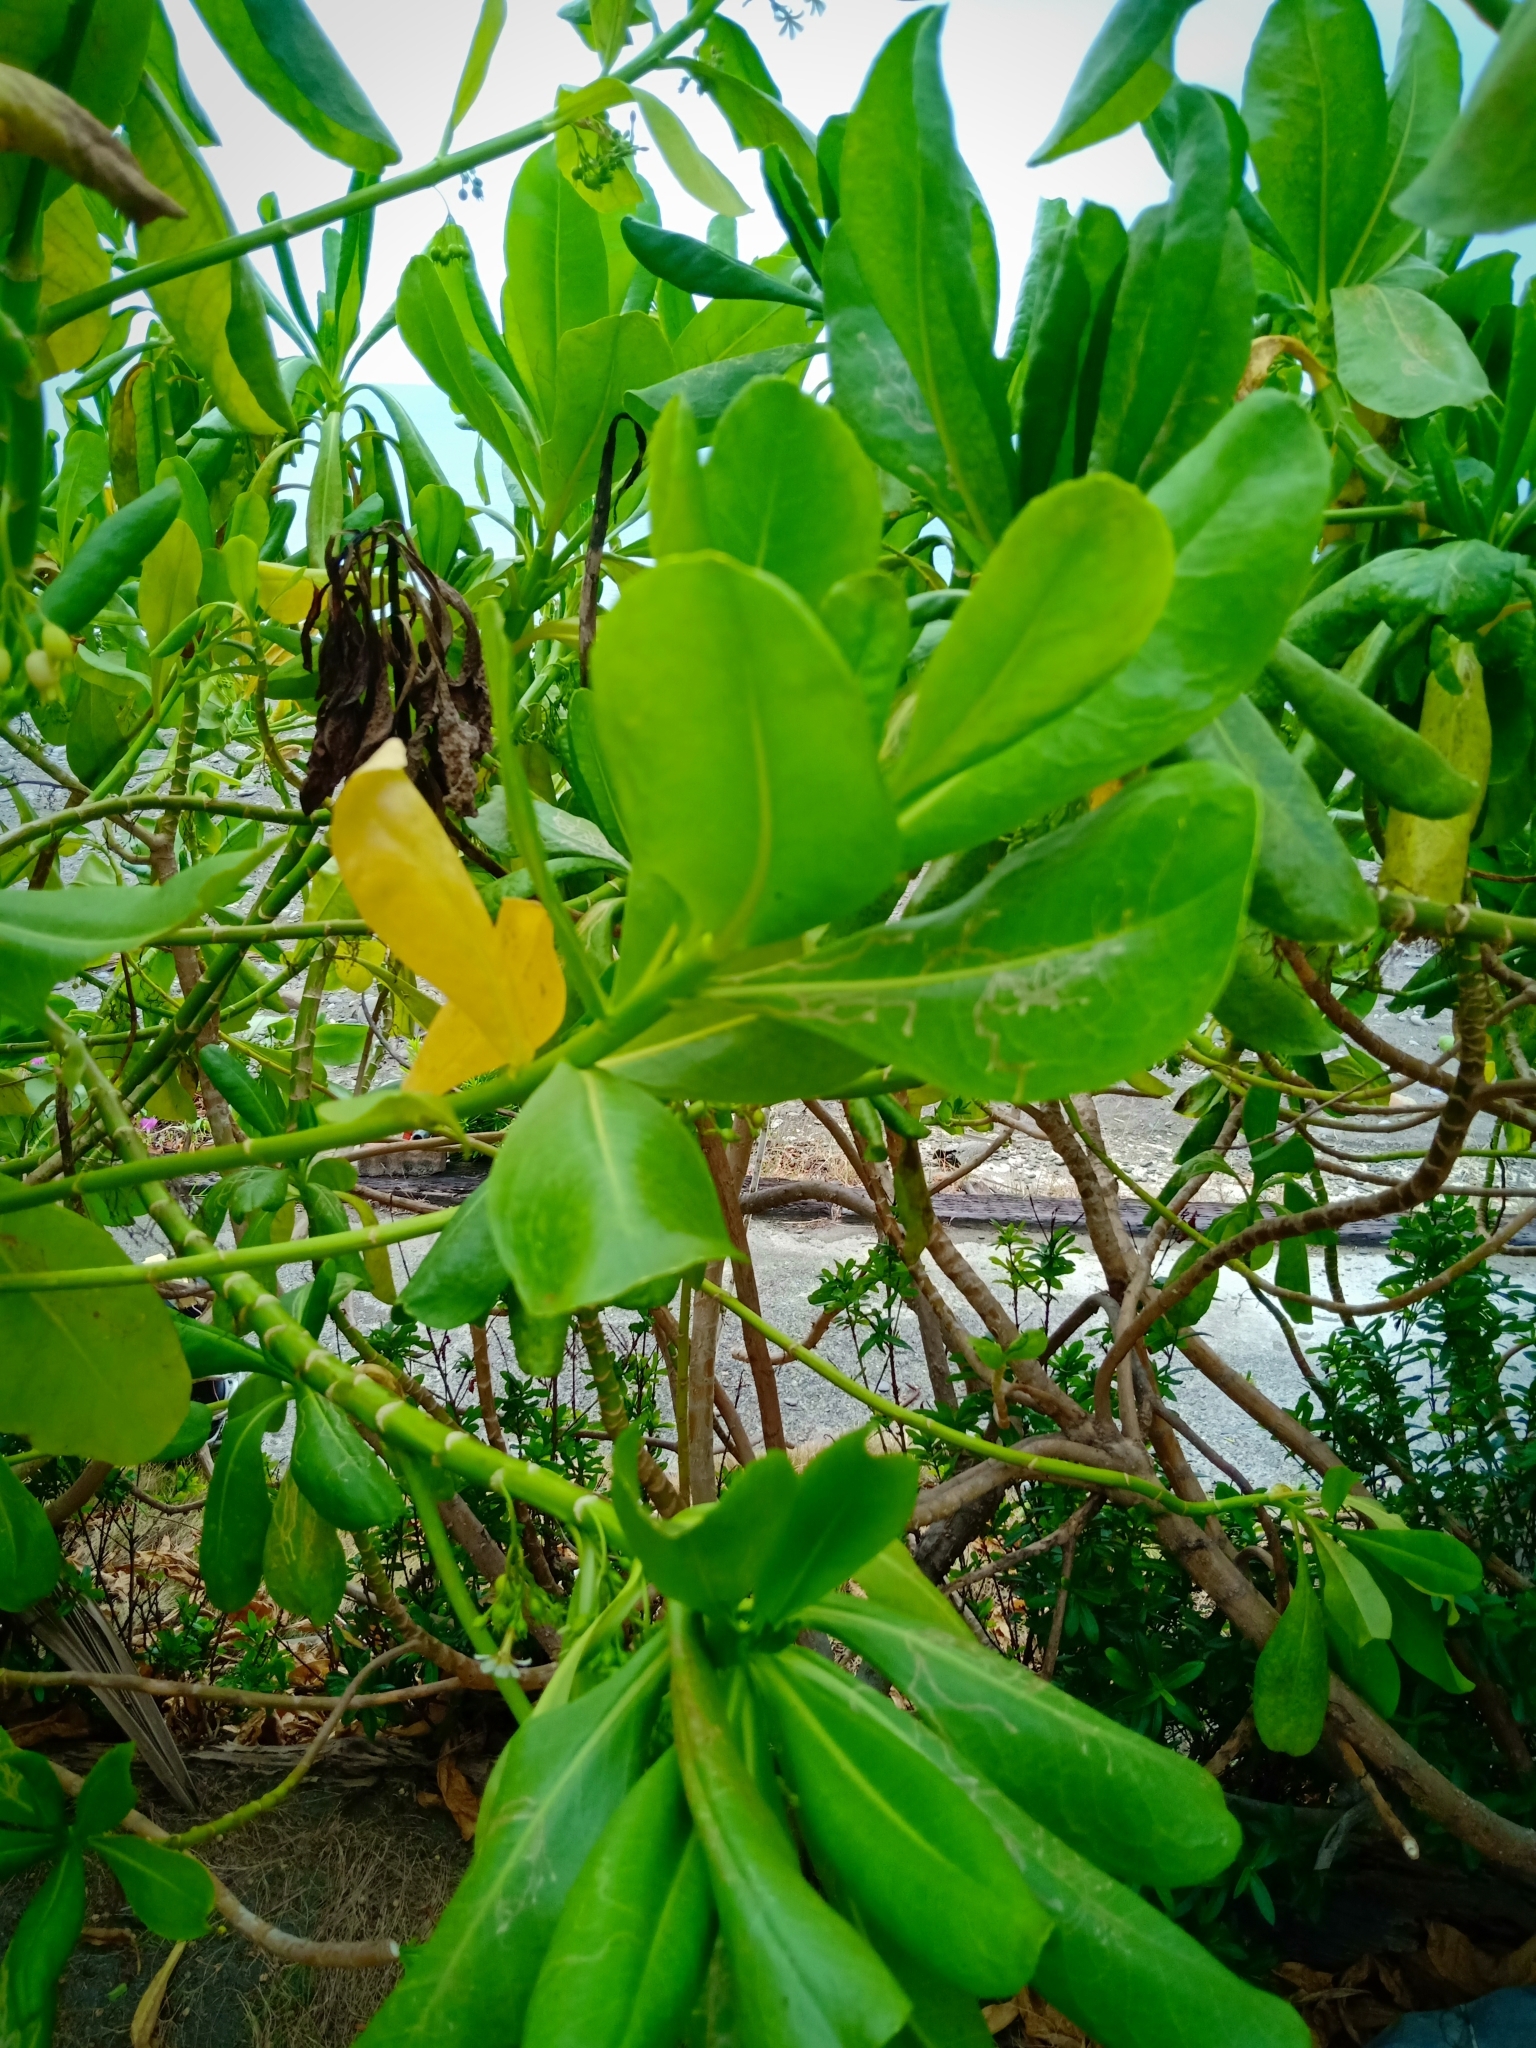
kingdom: Plantae
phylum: Tracheophyta
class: Magnoliopsida
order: Asterales
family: Goodeniaceae
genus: Scaevola
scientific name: Scaevola taccada
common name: Sea lettucetree
